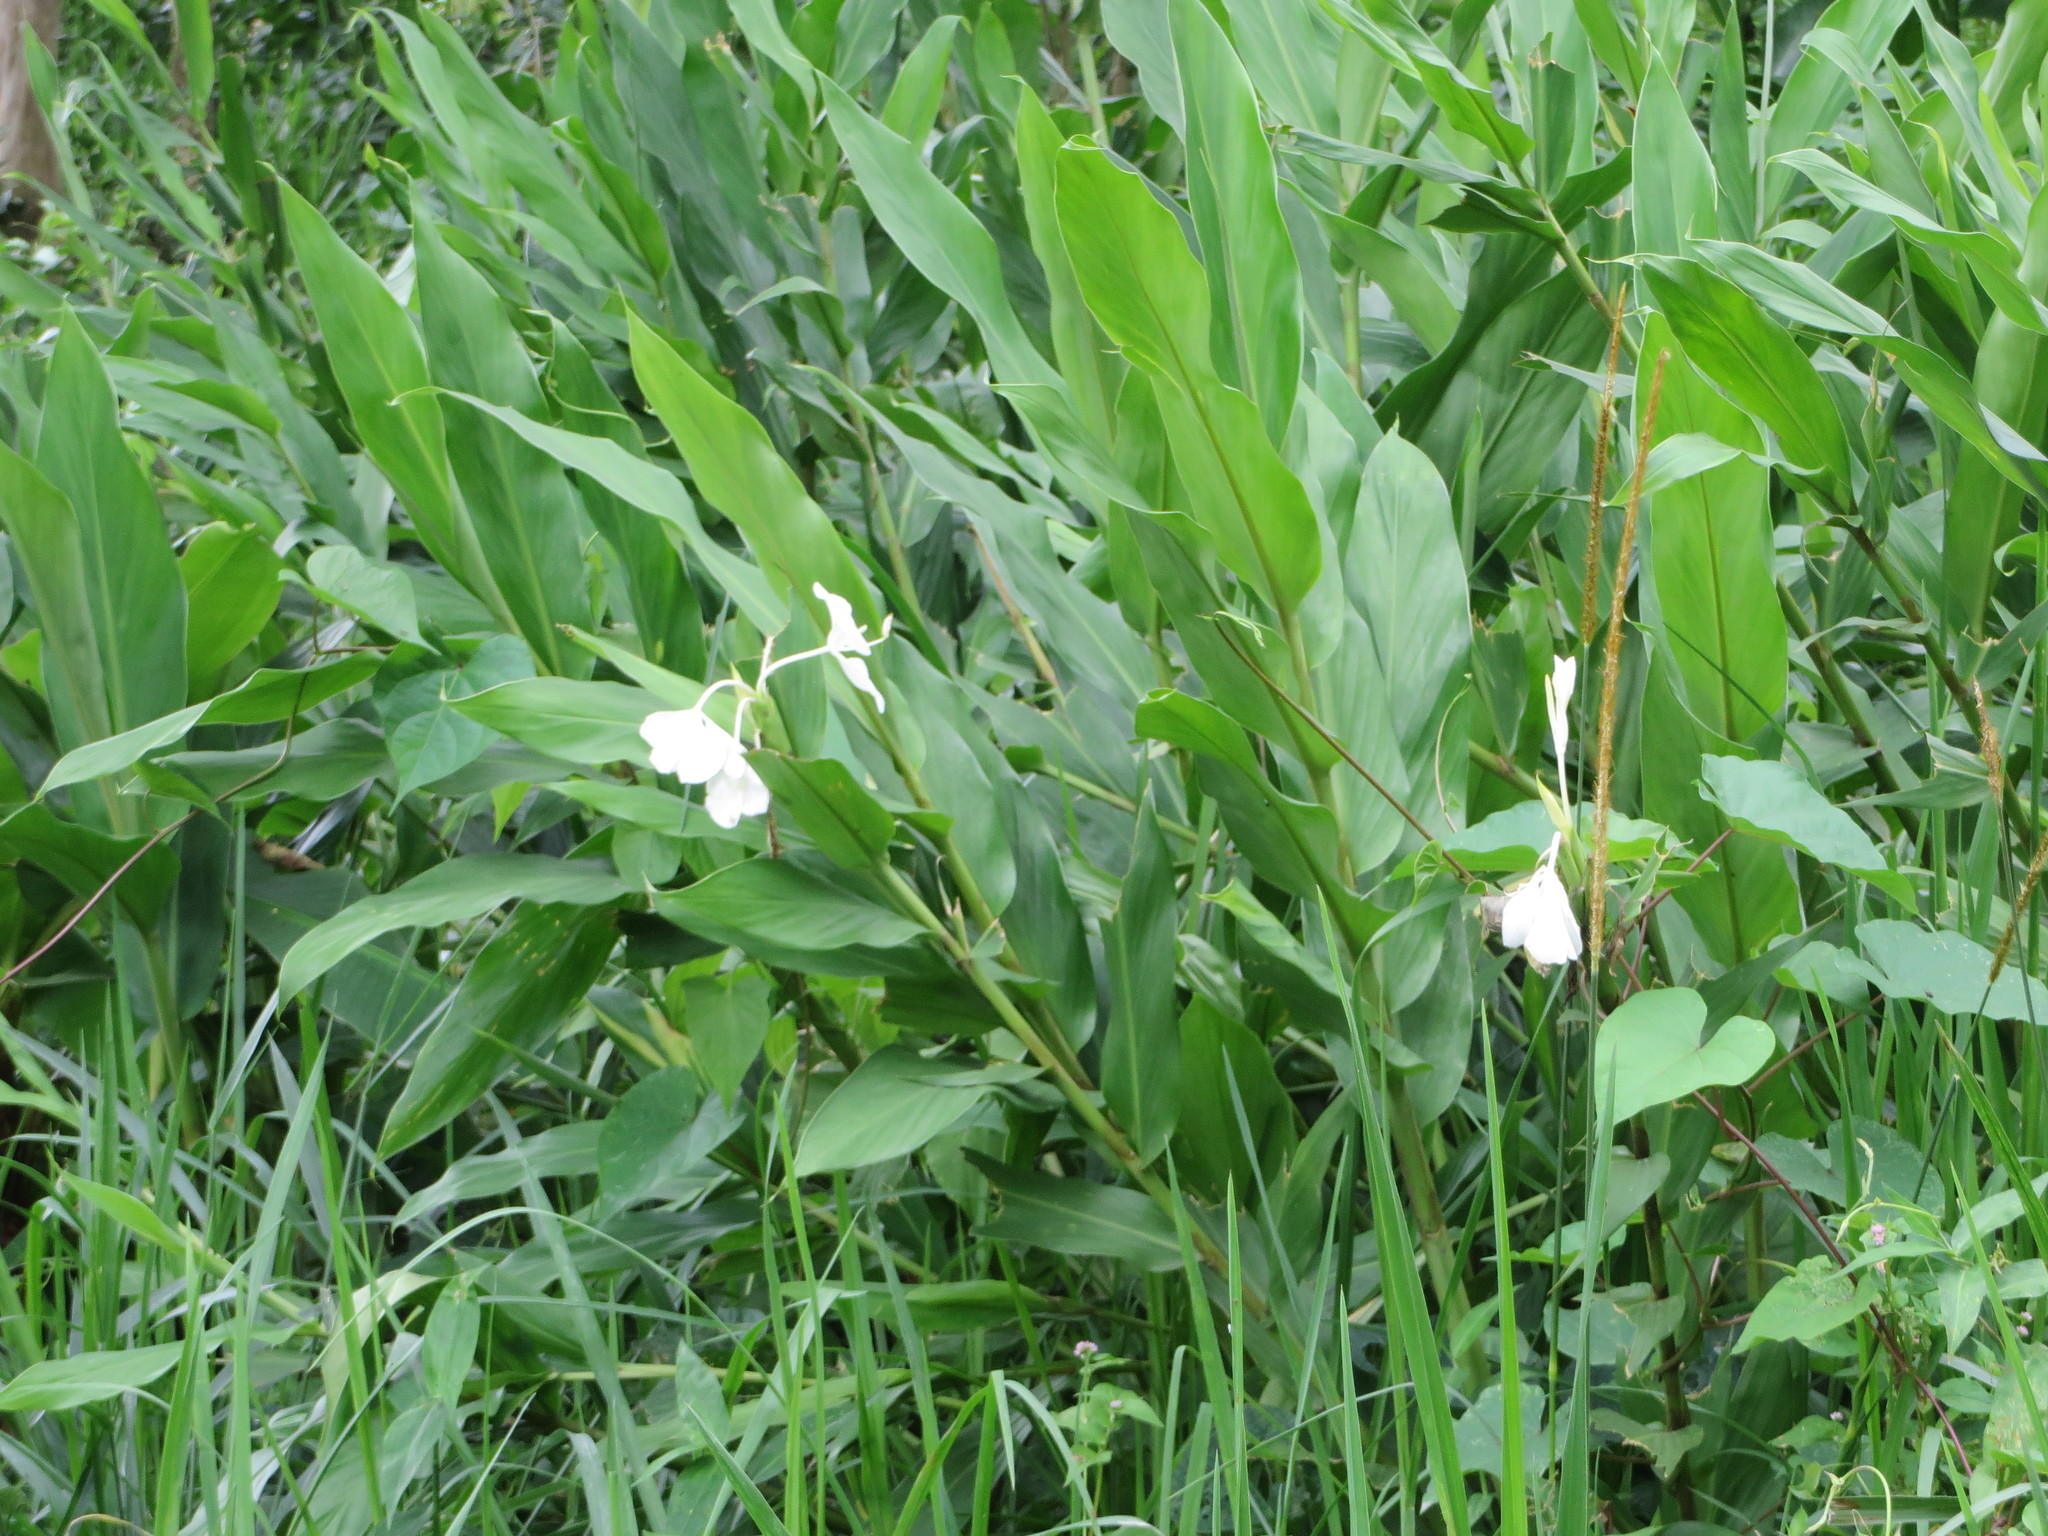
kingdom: Plantae
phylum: Tracheophyta
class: Liliopsida
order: Zingiberales
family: Zingiberaceae
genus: Hedychium
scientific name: Hedychium coronarium
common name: White garland-lily
